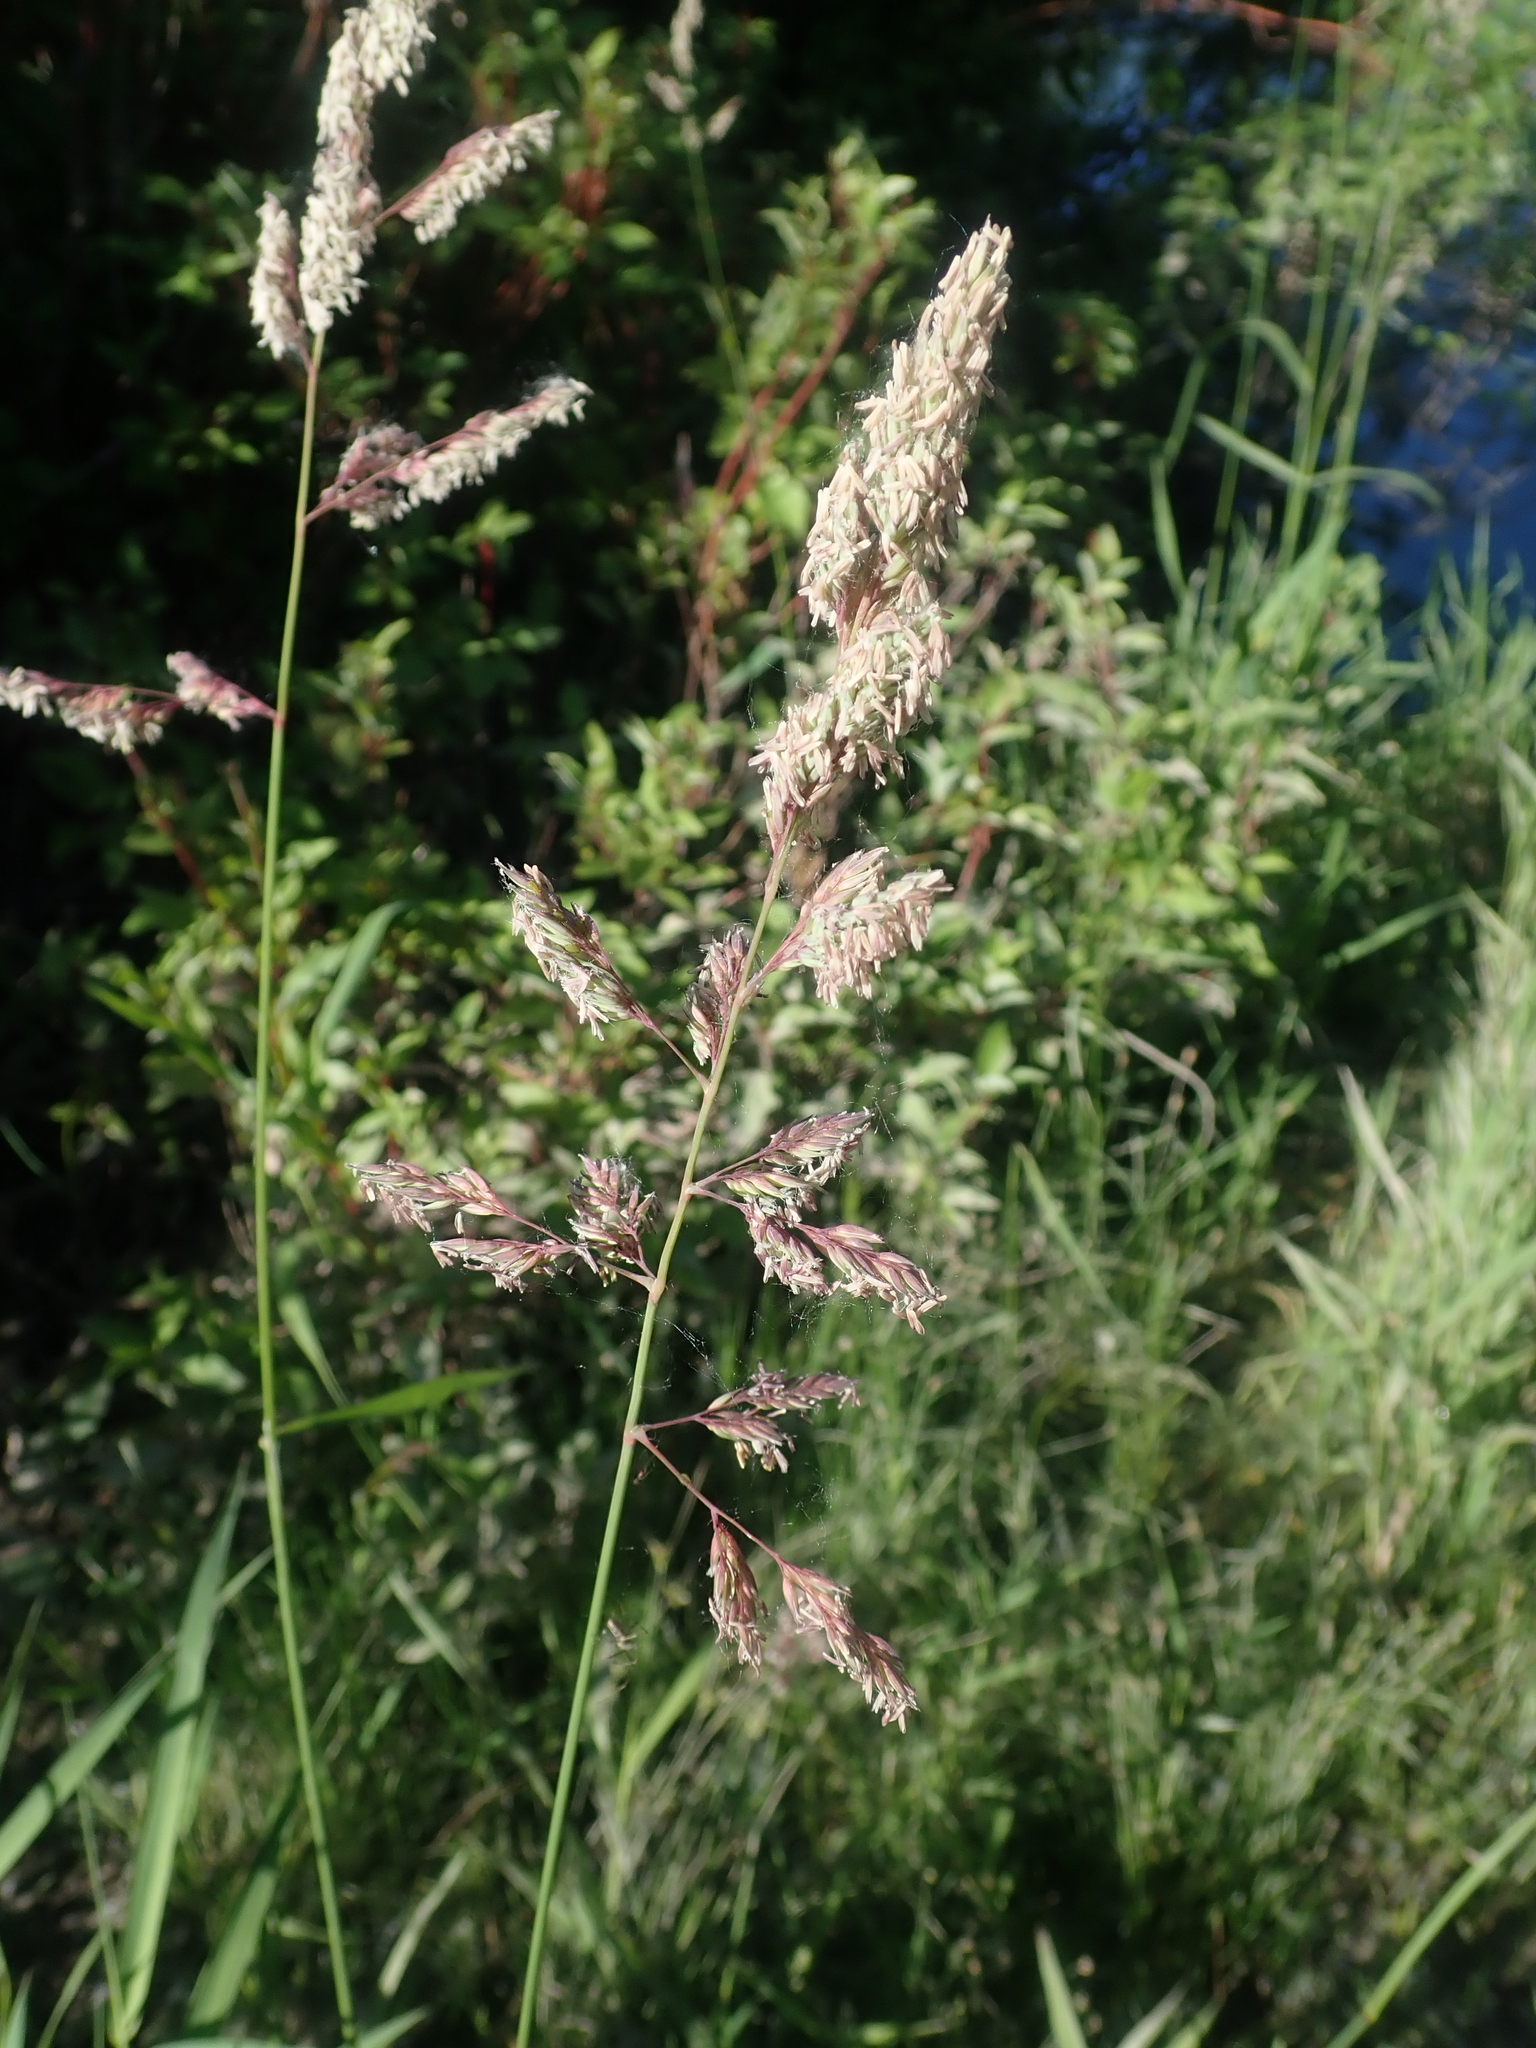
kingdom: Plantae
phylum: Tracheophyta
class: Liliopsida
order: Poales
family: Poaceae
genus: Phalaris
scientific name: Phalaris arundinacea
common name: Reed canary-grass
